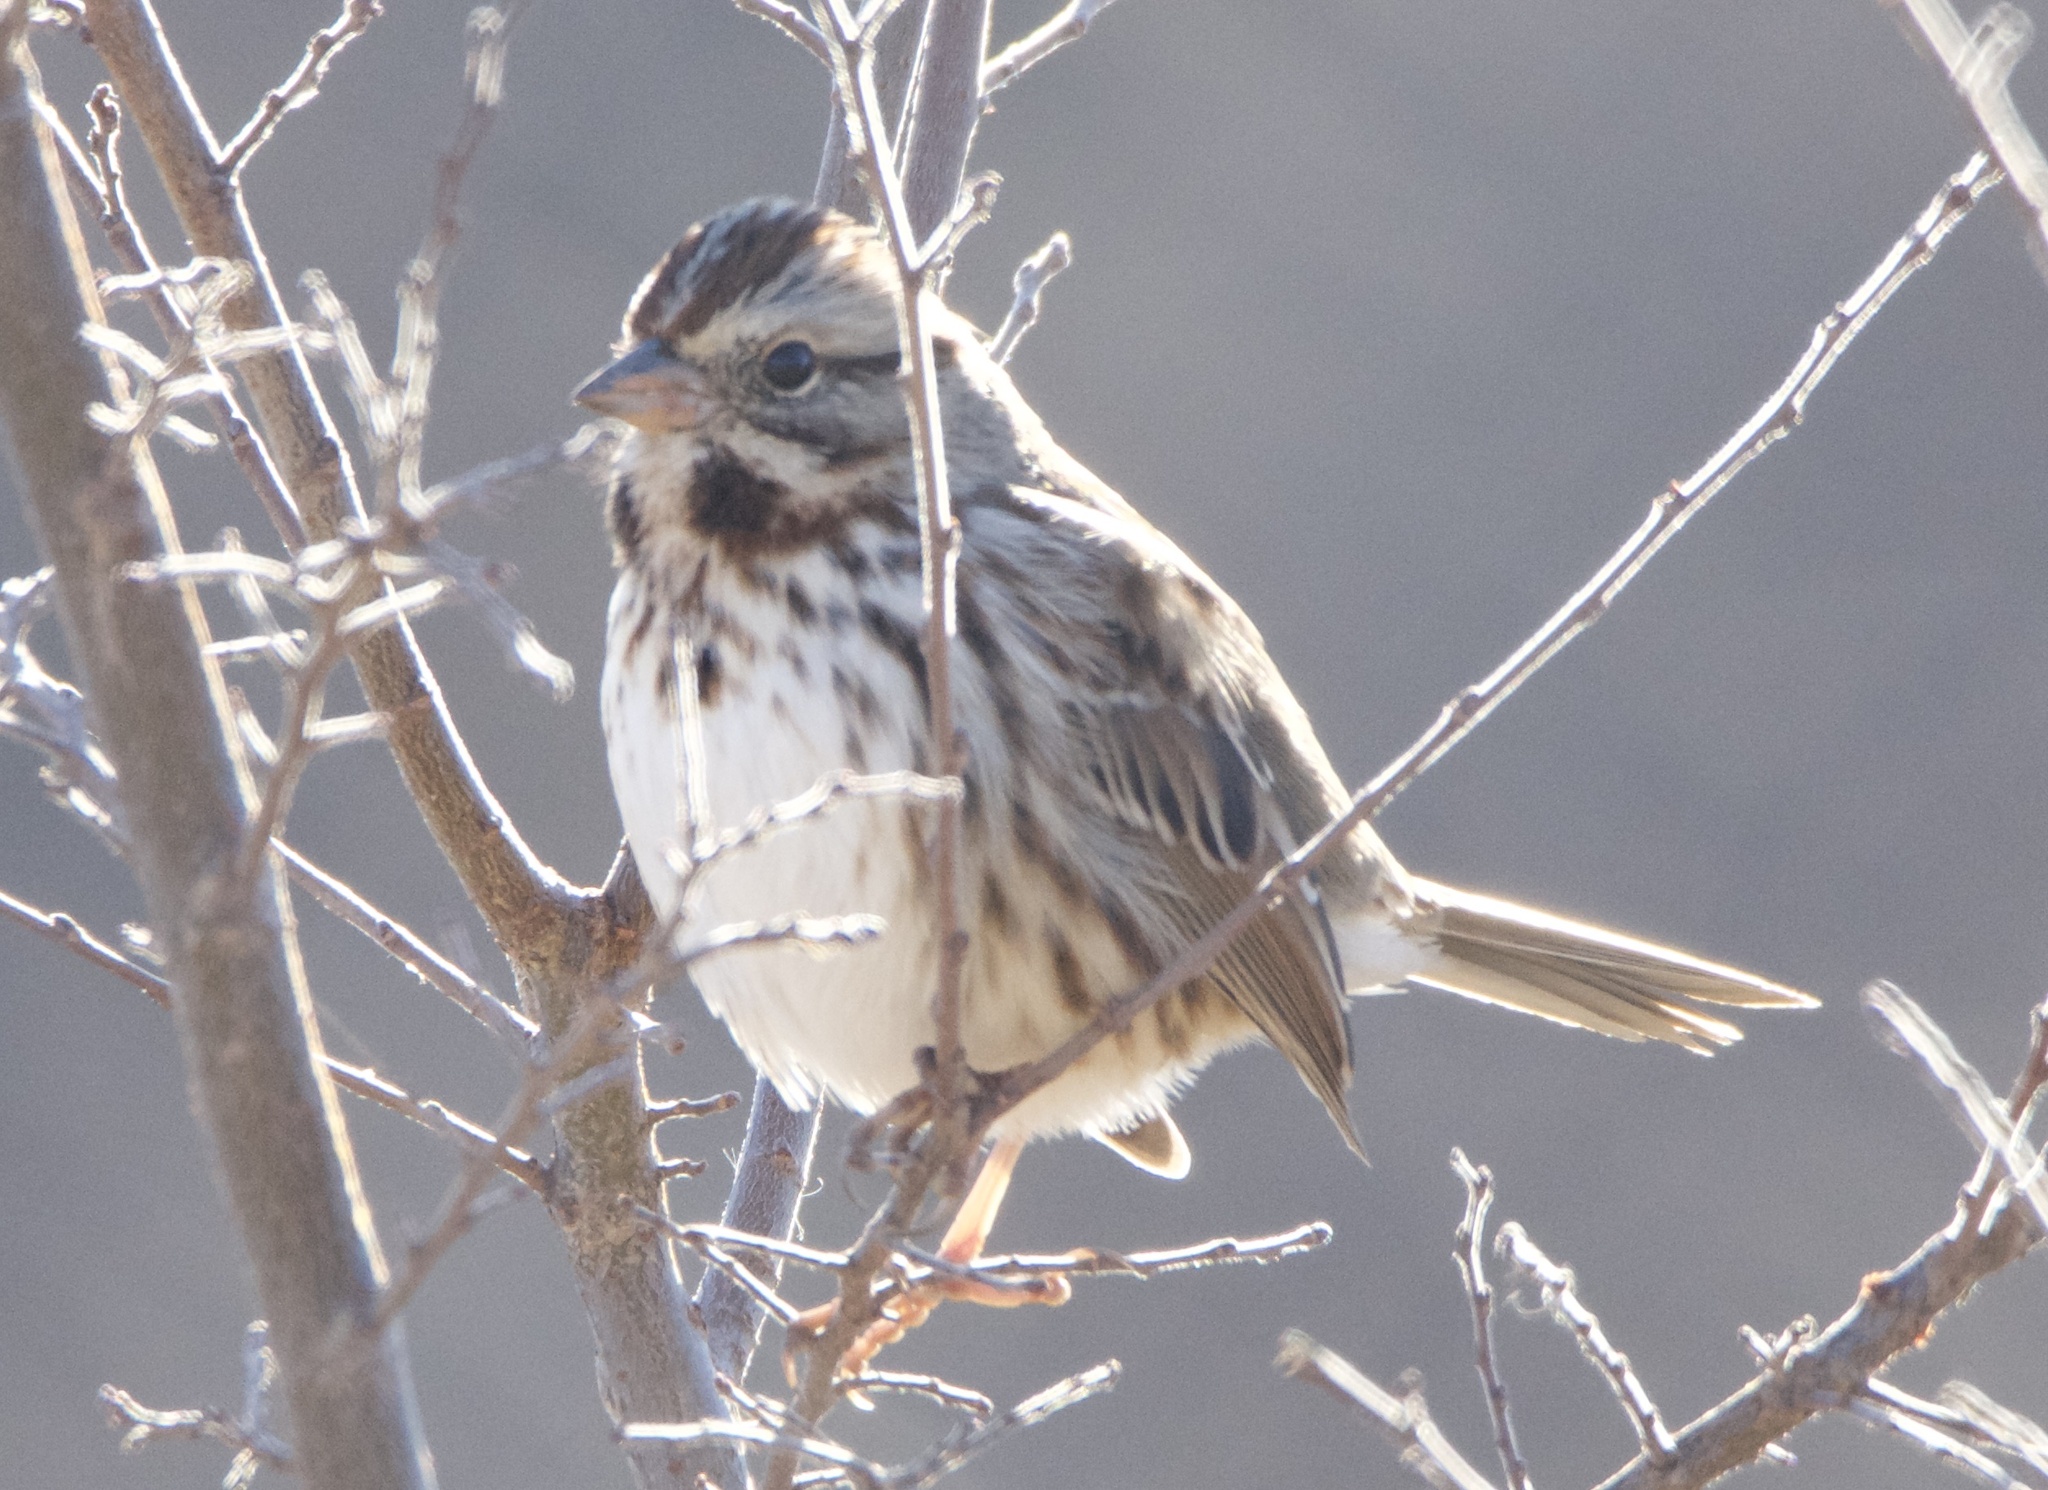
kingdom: Animalia
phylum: Chordata
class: Aves
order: Passeriformes
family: Passerellidae
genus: Melospiza
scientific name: Melospiza melodia
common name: Song sparrow
